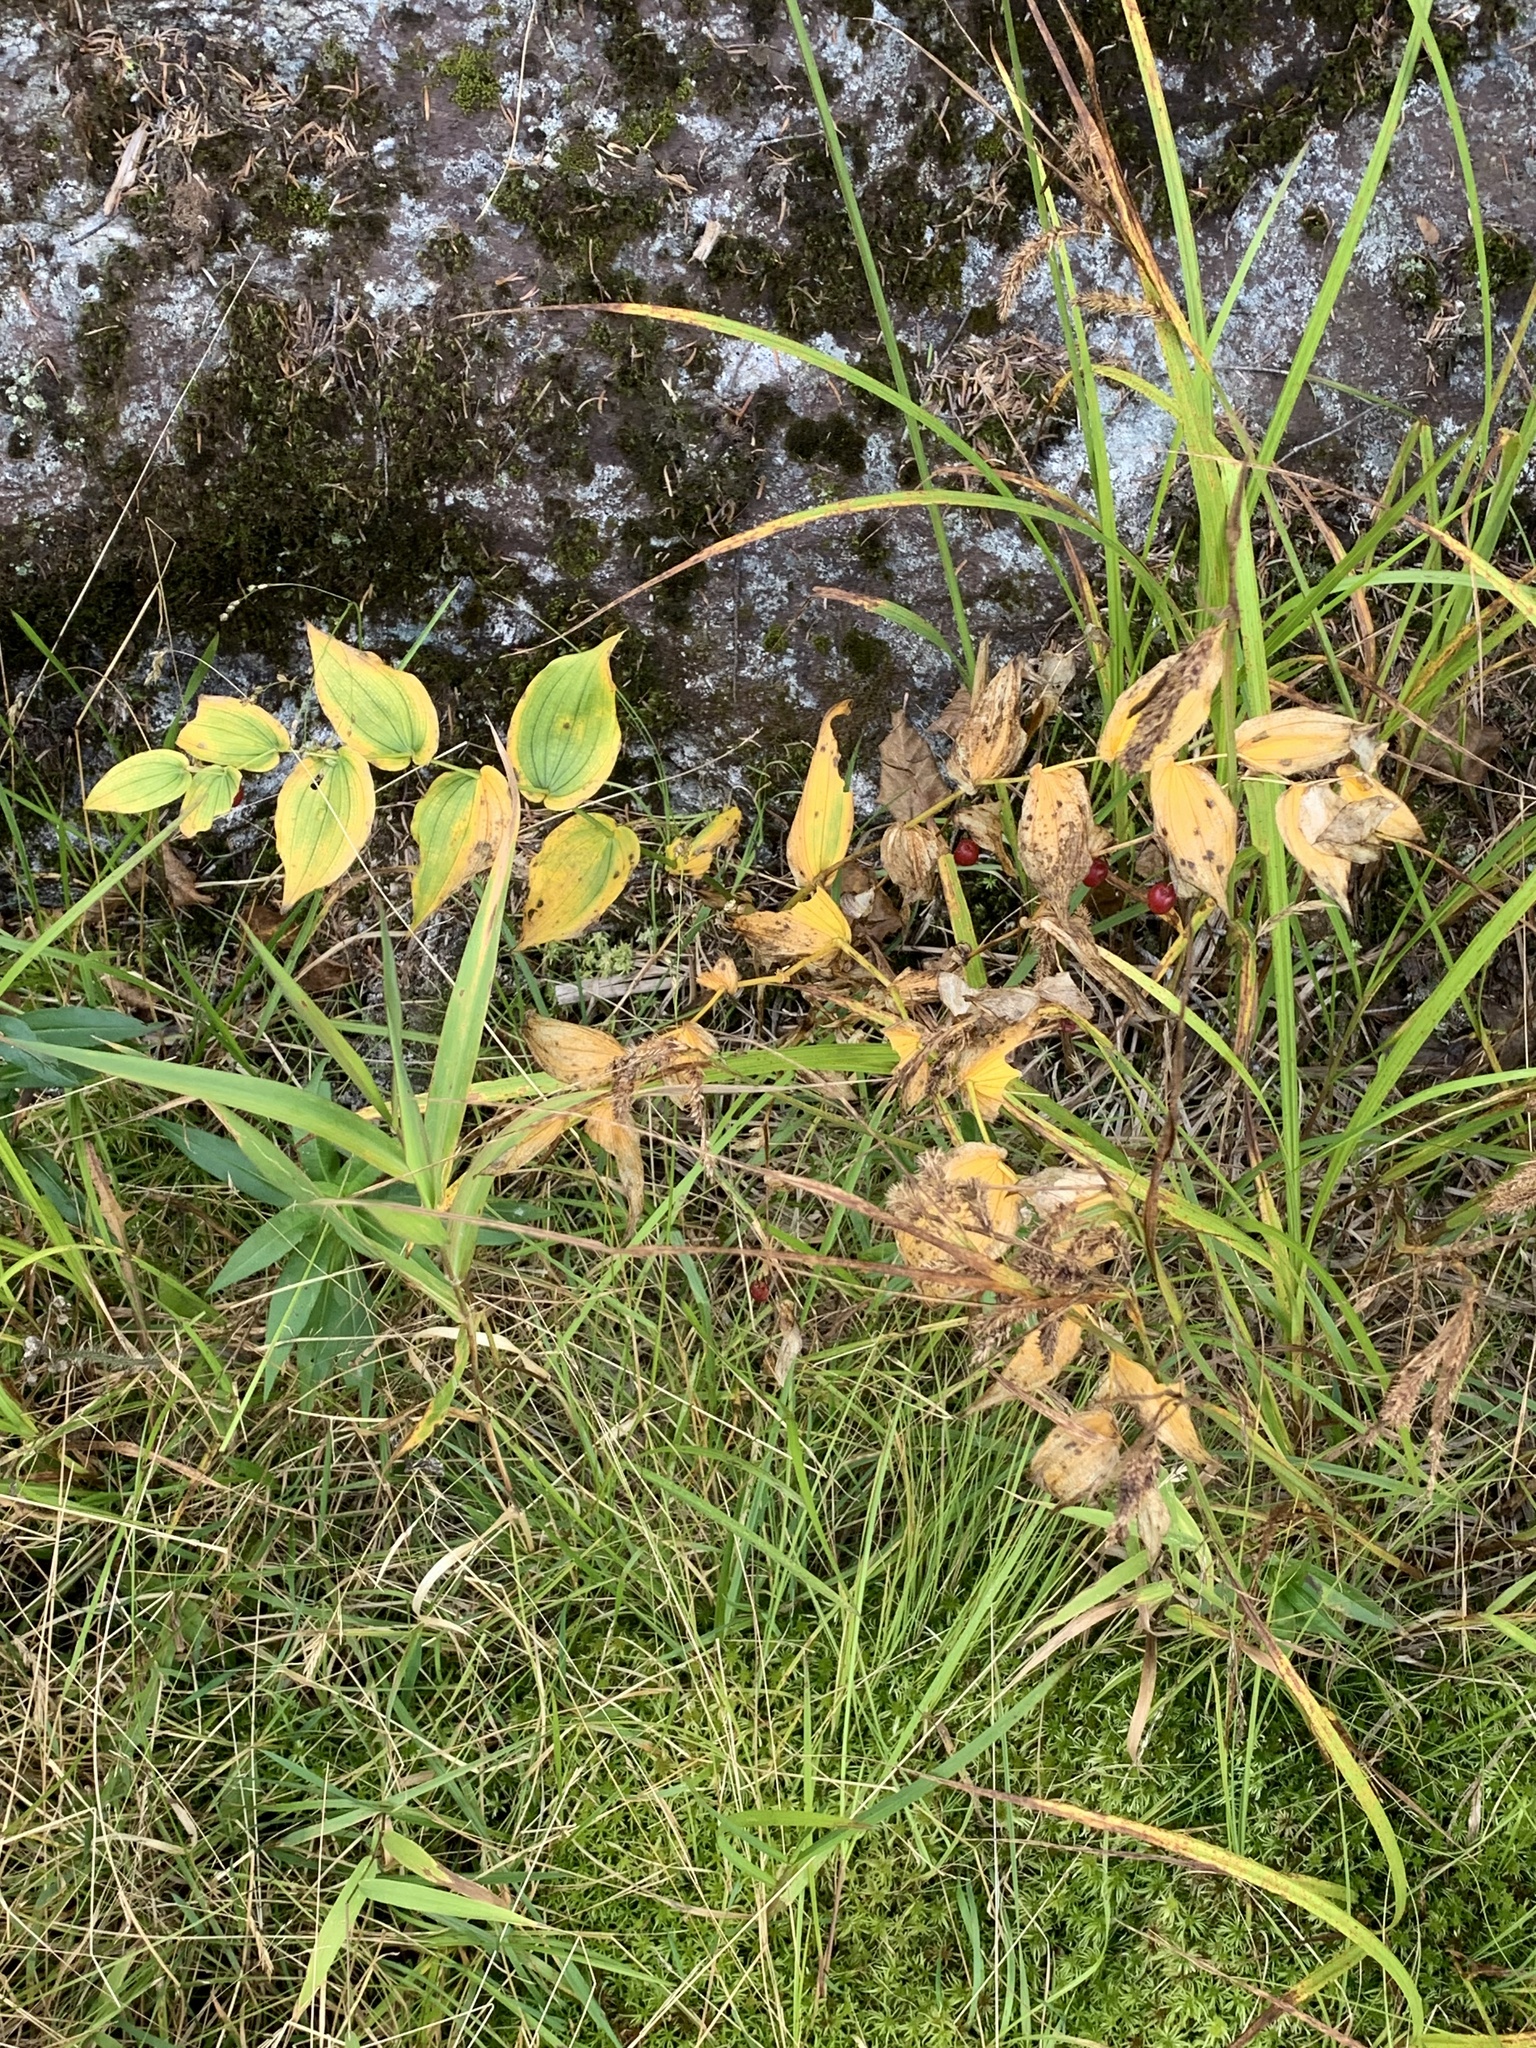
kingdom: Plantae
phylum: Tracheophyta
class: Liliopsida
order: Liliales
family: Liliaceae
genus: Streptopus
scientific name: Streptopus amplexifolius
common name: Clasp twisted stalk
